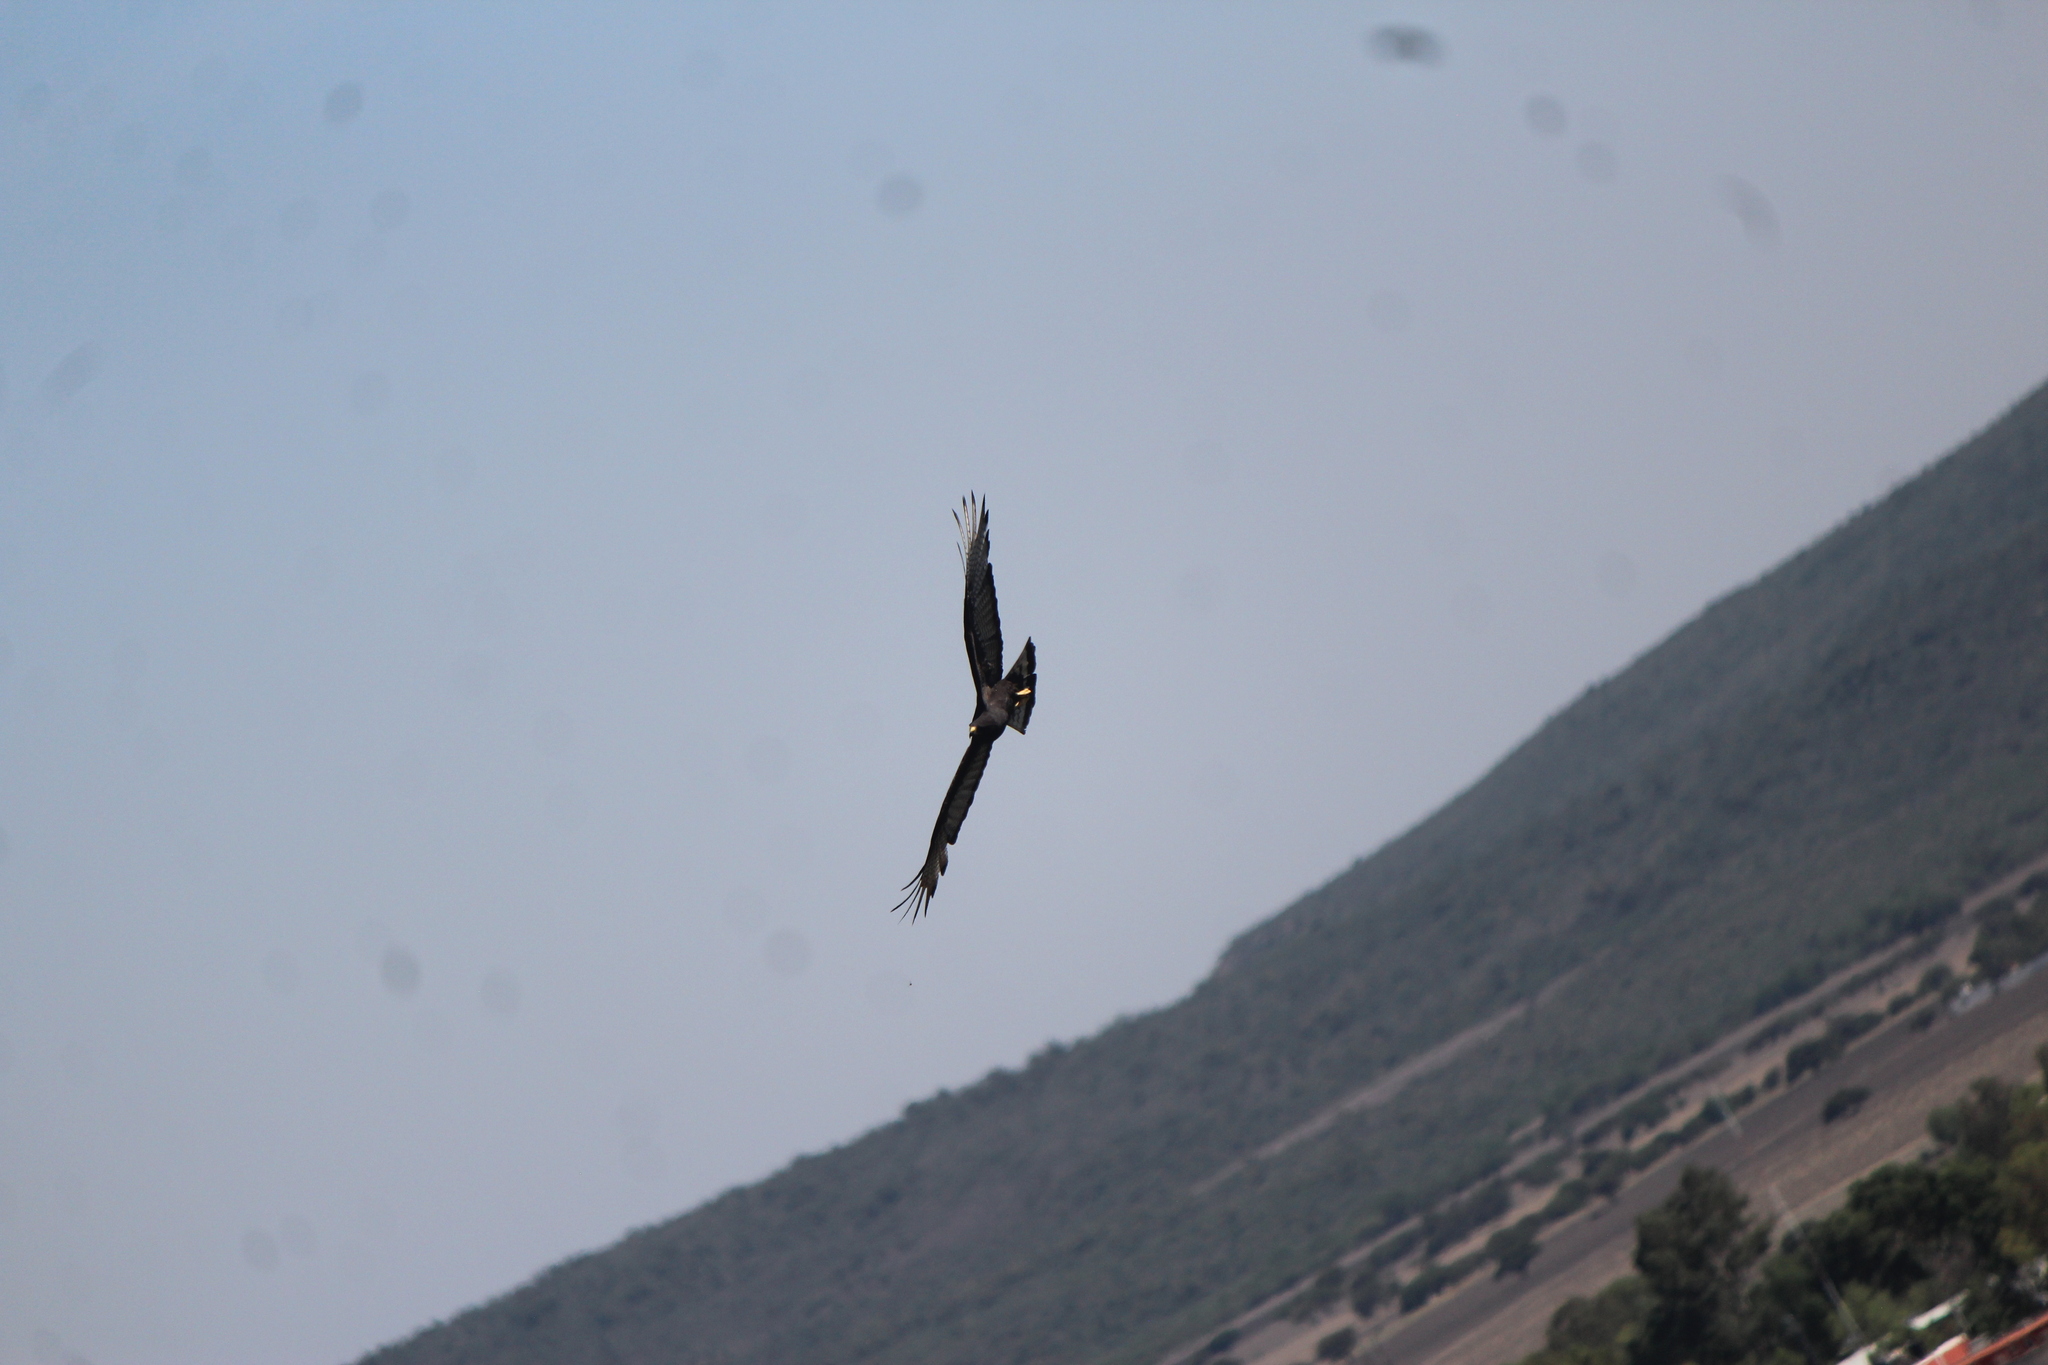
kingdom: Animalia
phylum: Chordata
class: Aves
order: Accipitriformes
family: Accipitridae
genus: Buteo
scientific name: Buteo albonotatus
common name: Zone-tailed hawk
